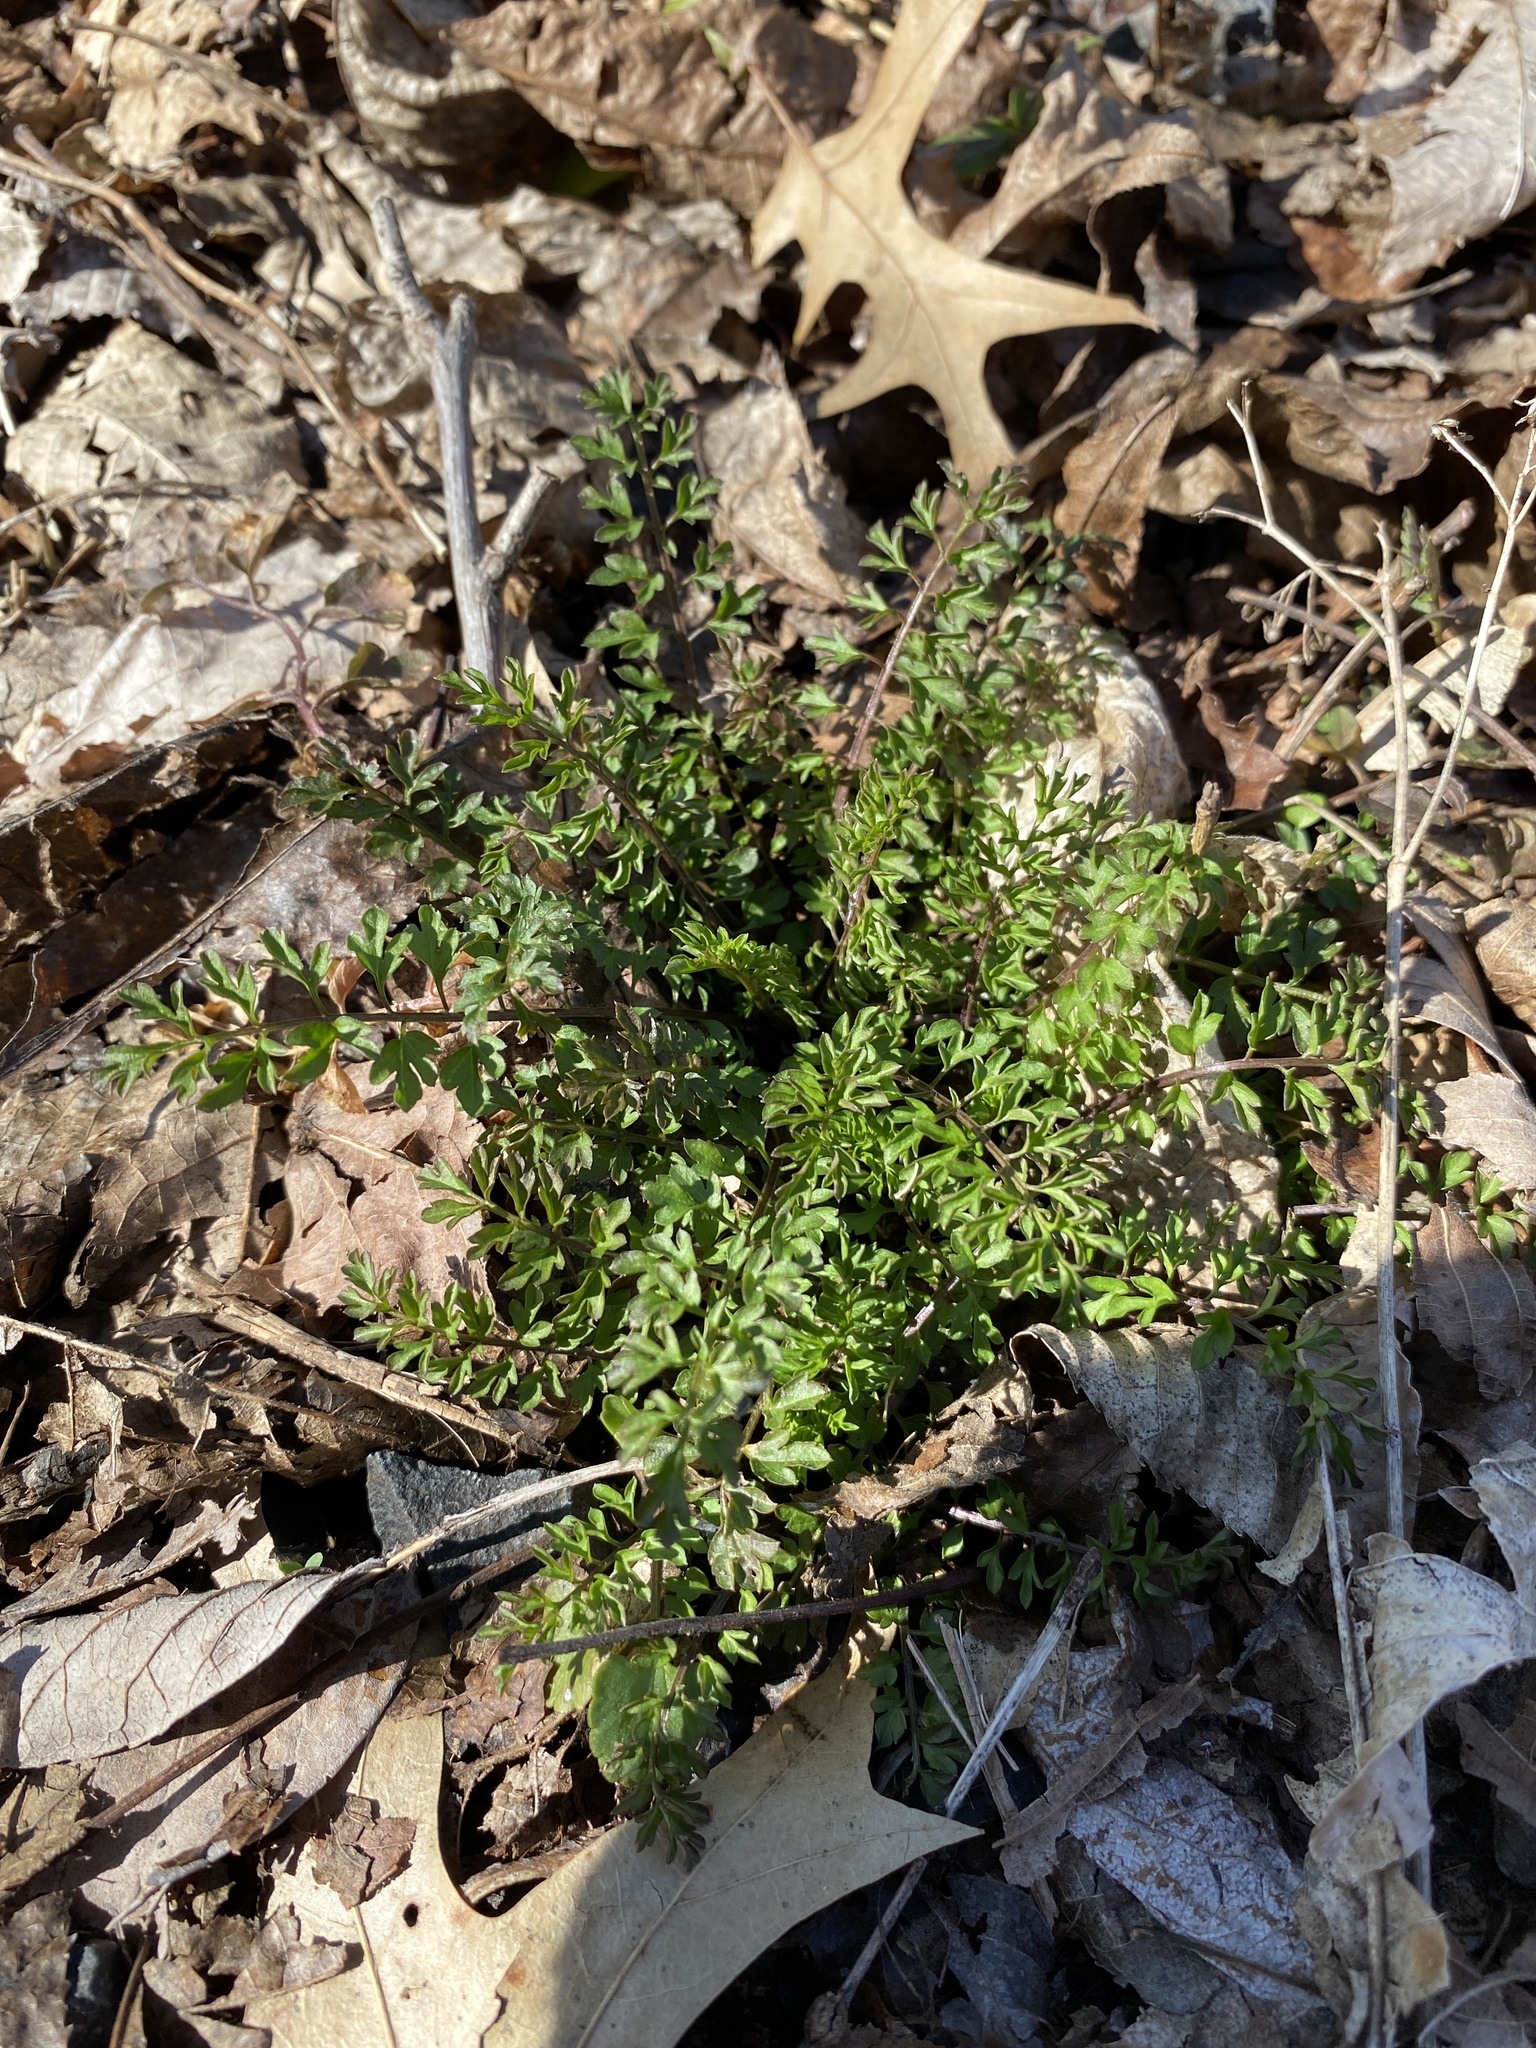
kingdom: Plantae
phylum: Tracheophyta
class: Magnoliopsida
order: Brassicales
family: Brassicaceae
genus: Cardamine
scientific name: Cardamine impatiens
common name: Narrow-leaved bitter-cress
